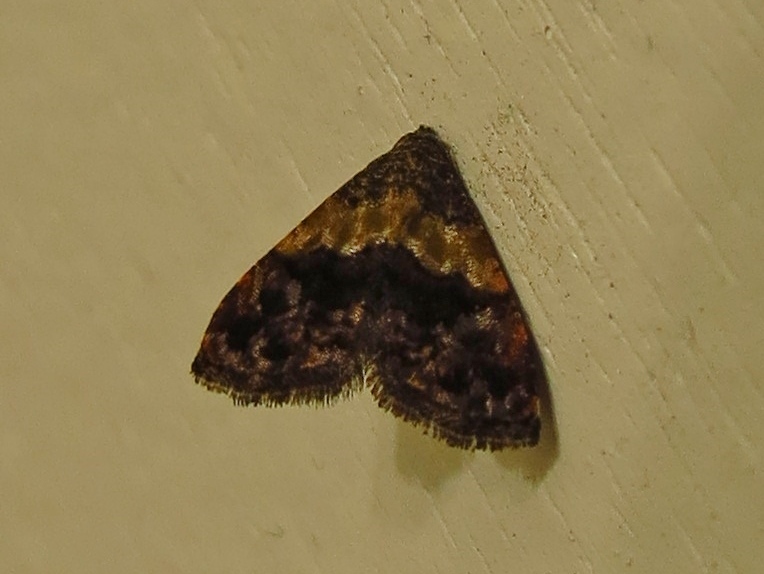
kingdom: Animalia
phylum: Arthropoda
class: Insecta
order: Lepidoptera
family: Noctuidae
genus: Tripudia
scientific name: Tripudia balteata
